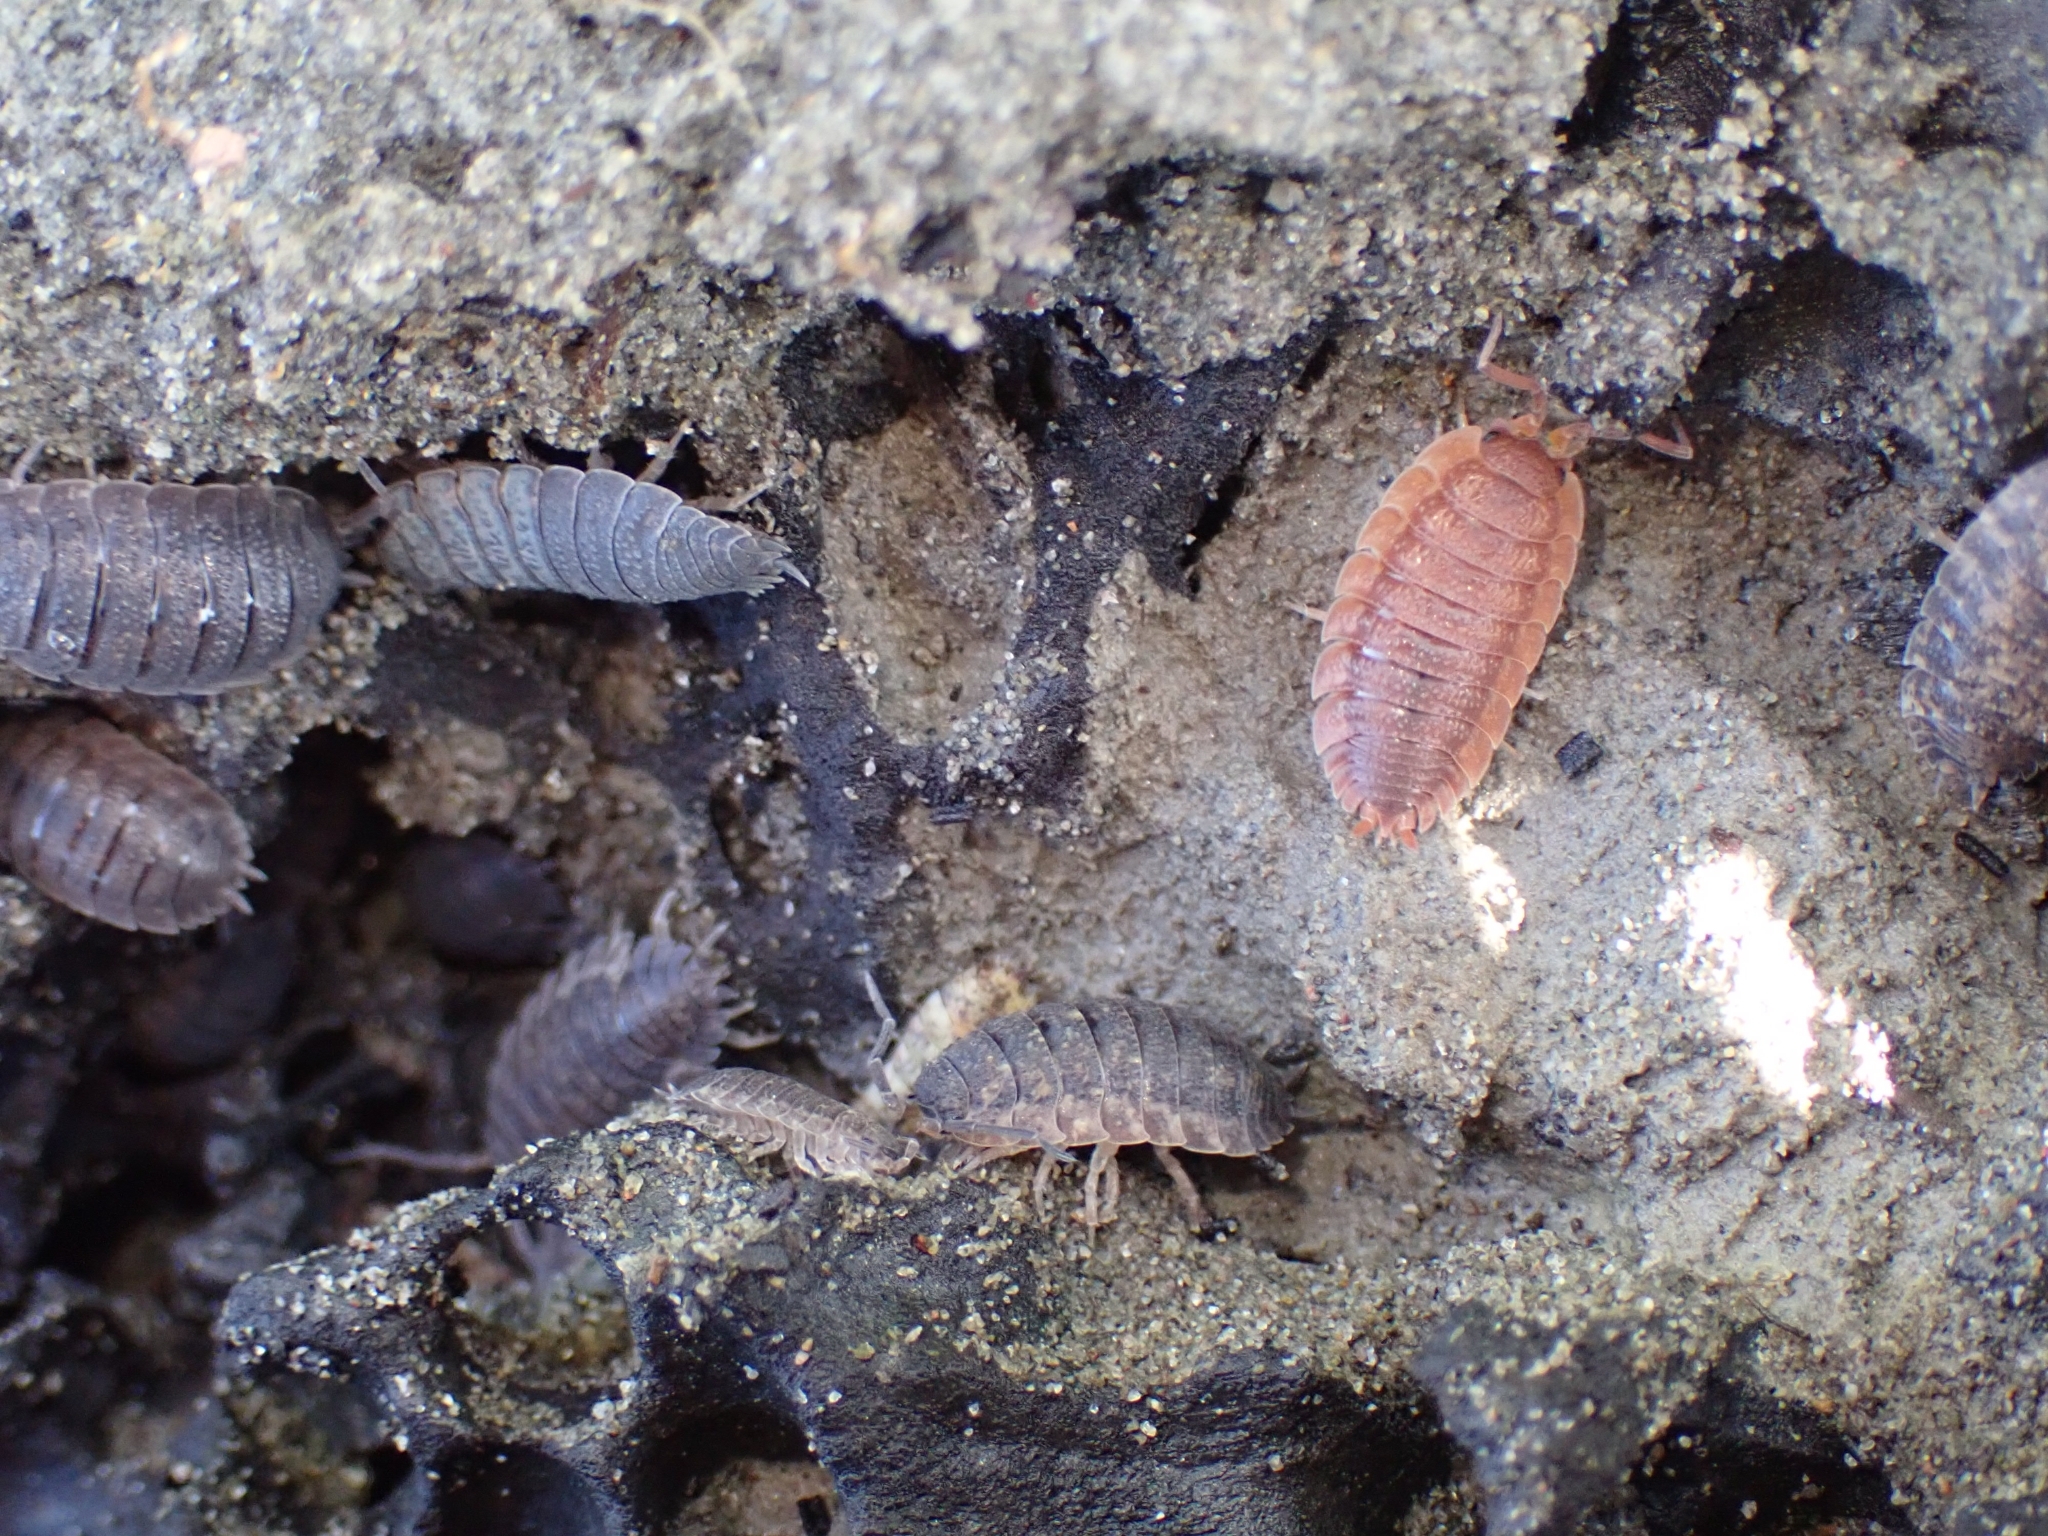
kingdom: Animalia
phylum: Arthropoda
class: Malacostraca
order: Isopoda
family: Porcellionidae
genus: Porcellio
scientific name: Porcellio scaber
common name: Common rough woodlouse
